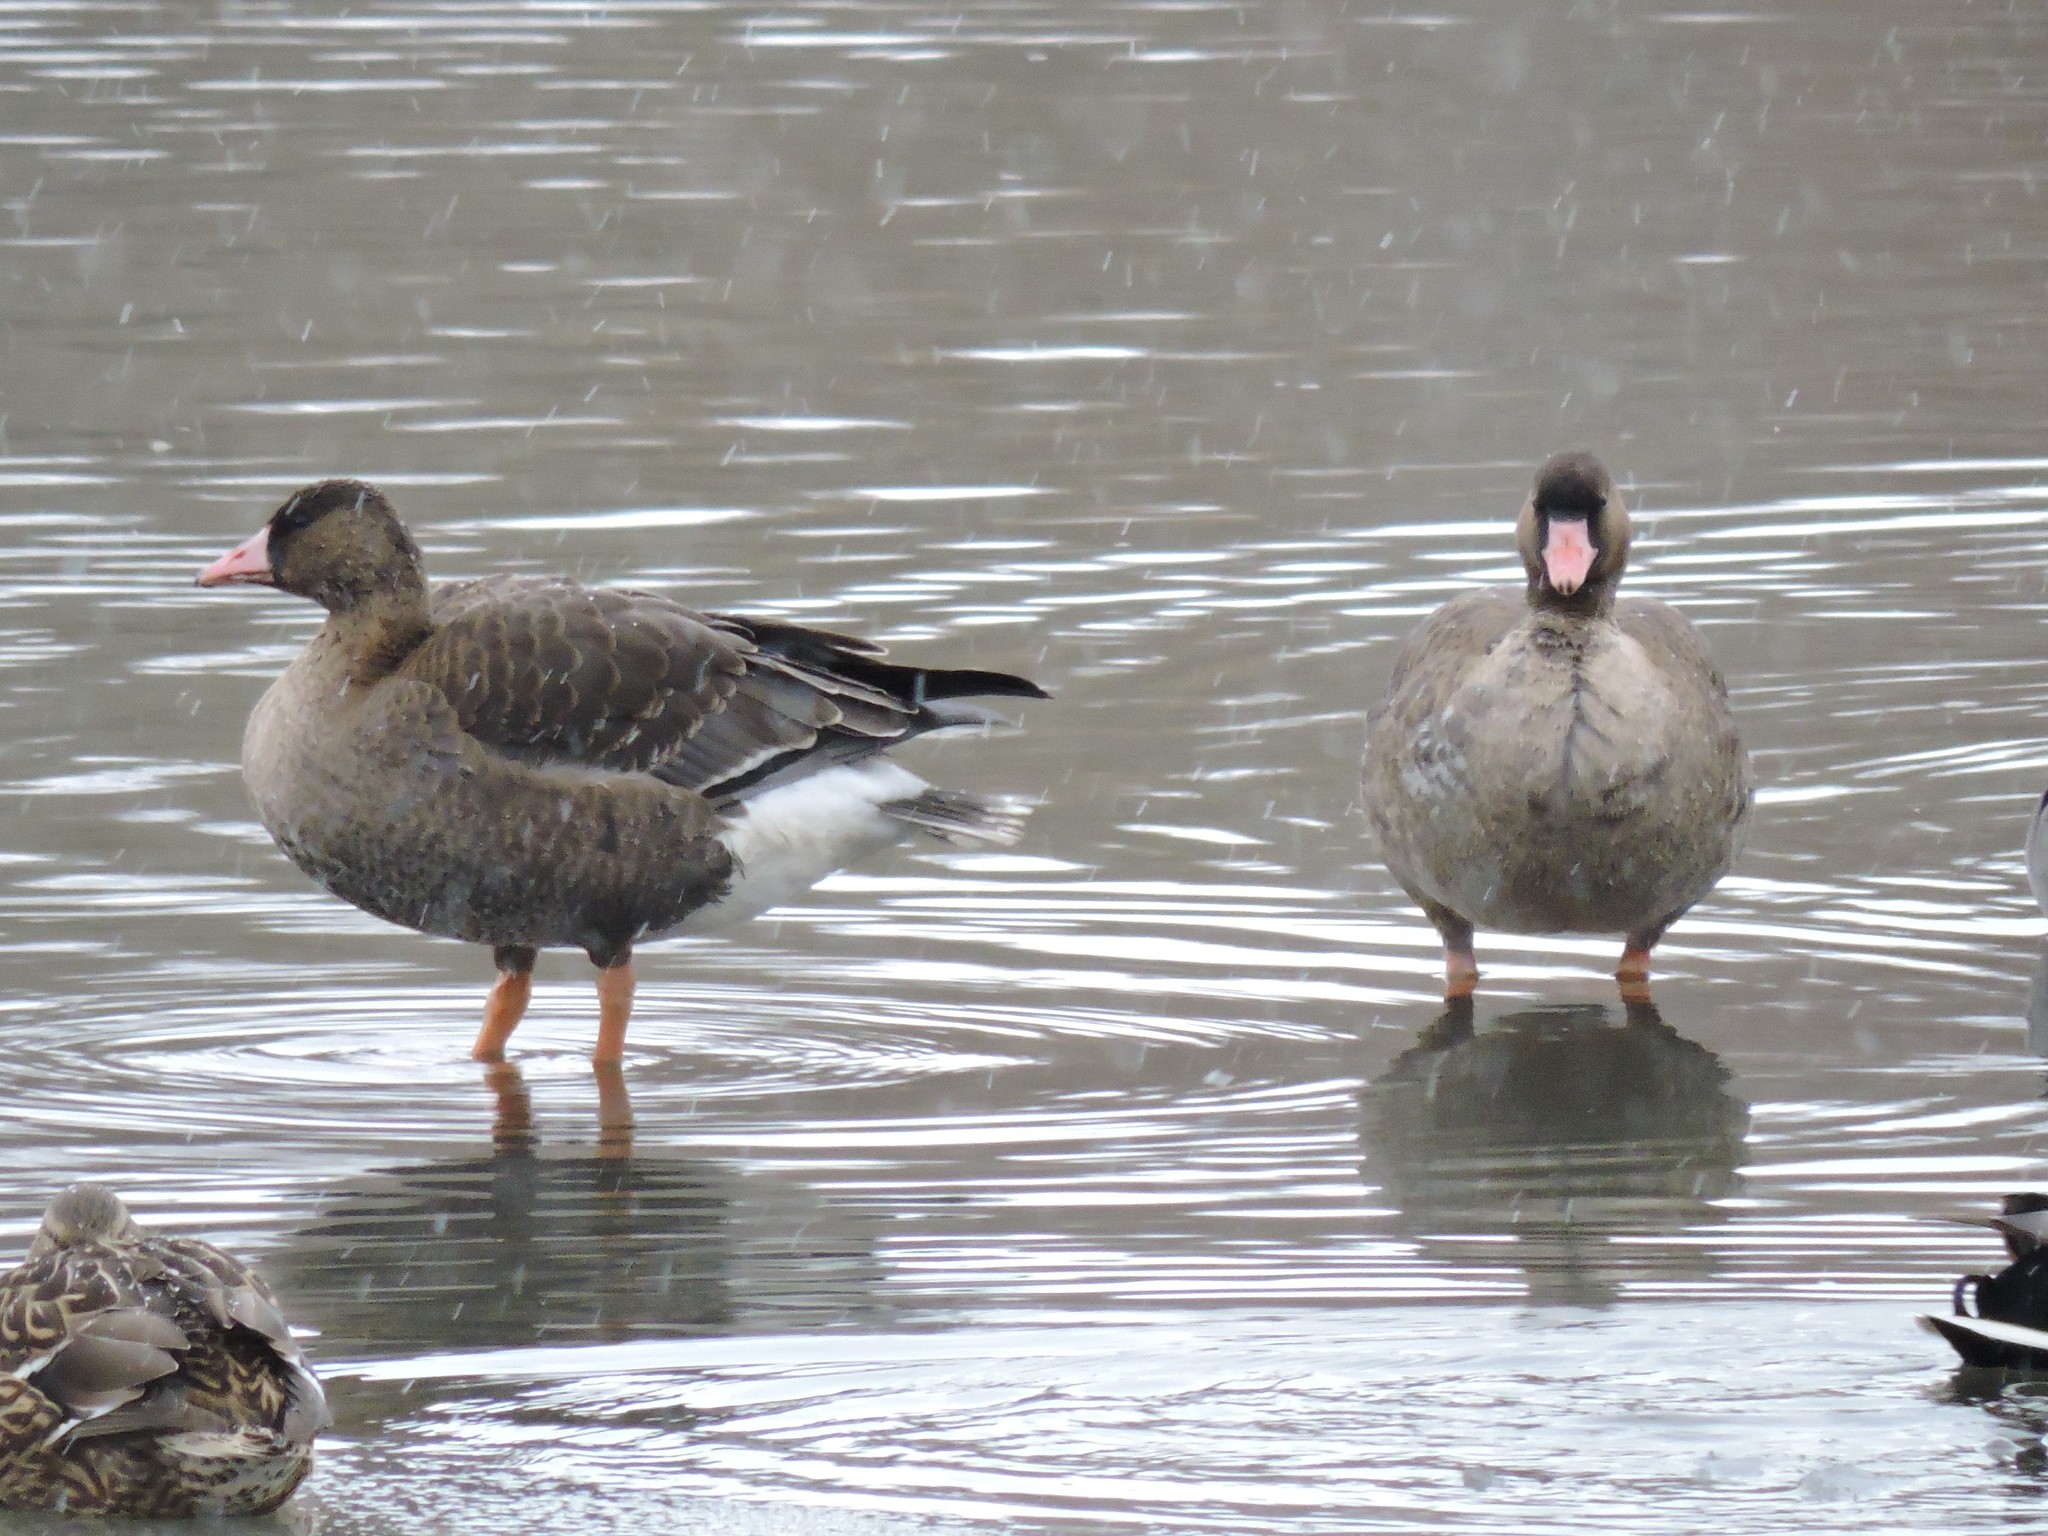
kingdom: Animalia
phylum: Chordata
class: Aves
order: Anseriformes
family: Anatidae
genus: Anser
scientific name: Anser albifrons
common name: Greater white-fronted goose
